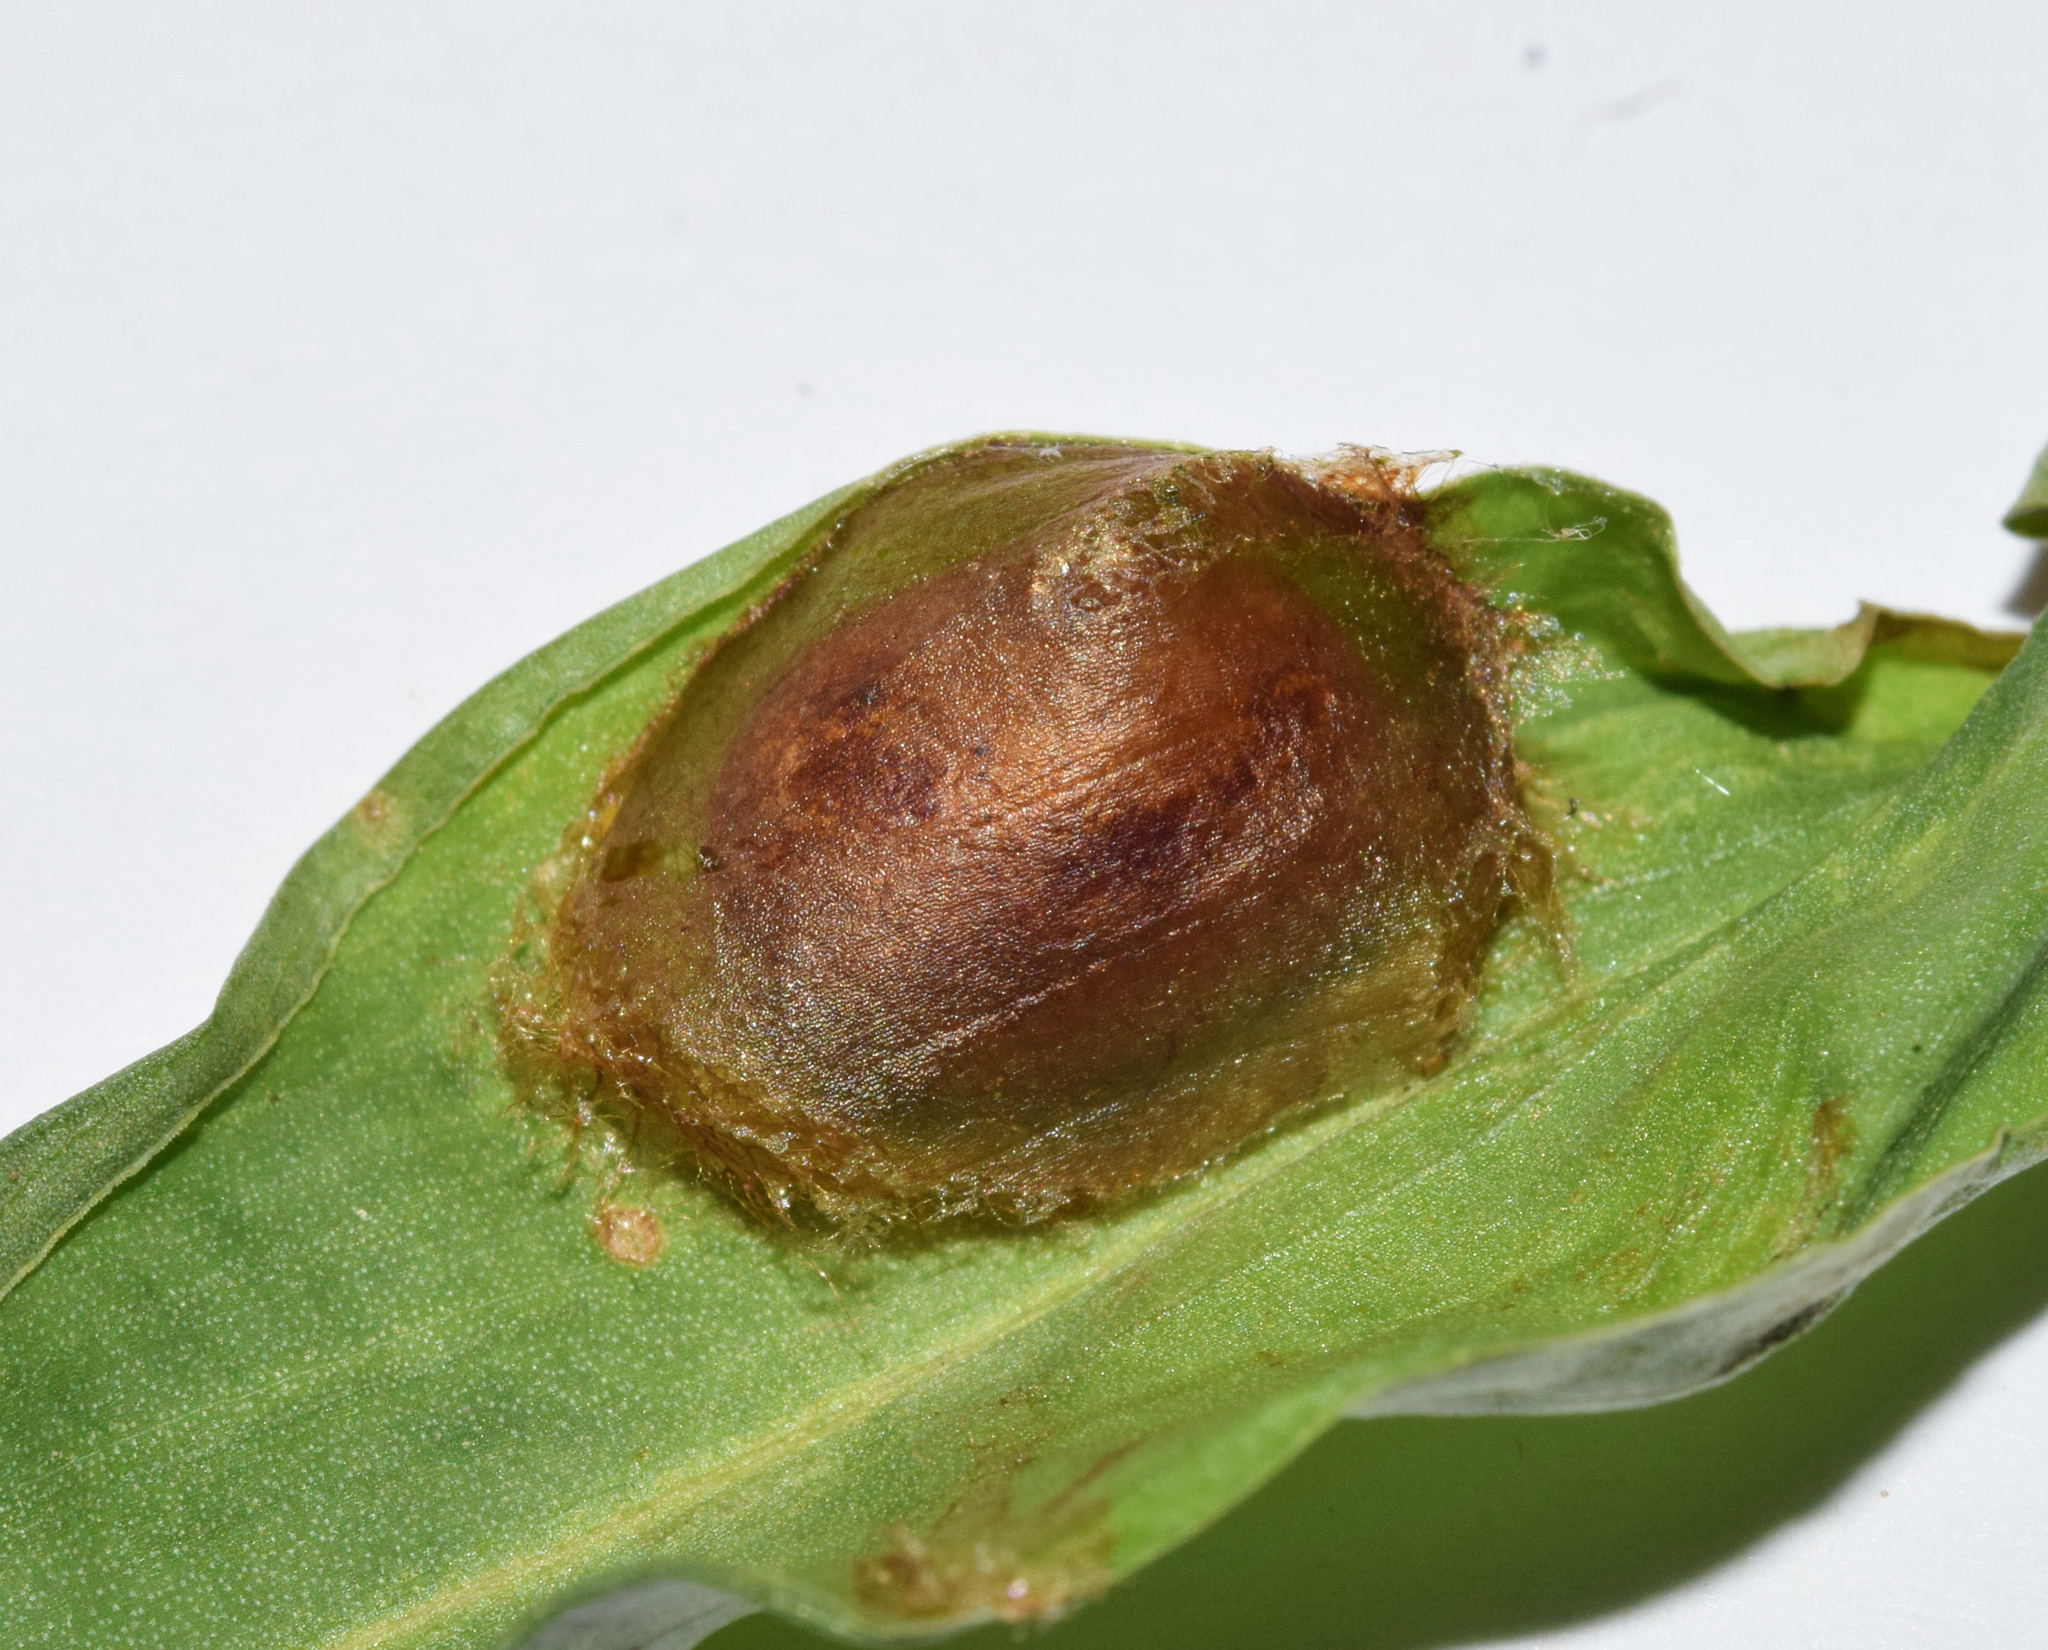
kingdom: Animalia
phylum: Arthropoda
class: Insecta
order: Lepidoptera
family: Limacodidae
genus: Neomocena
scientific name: Neomocena convergens
